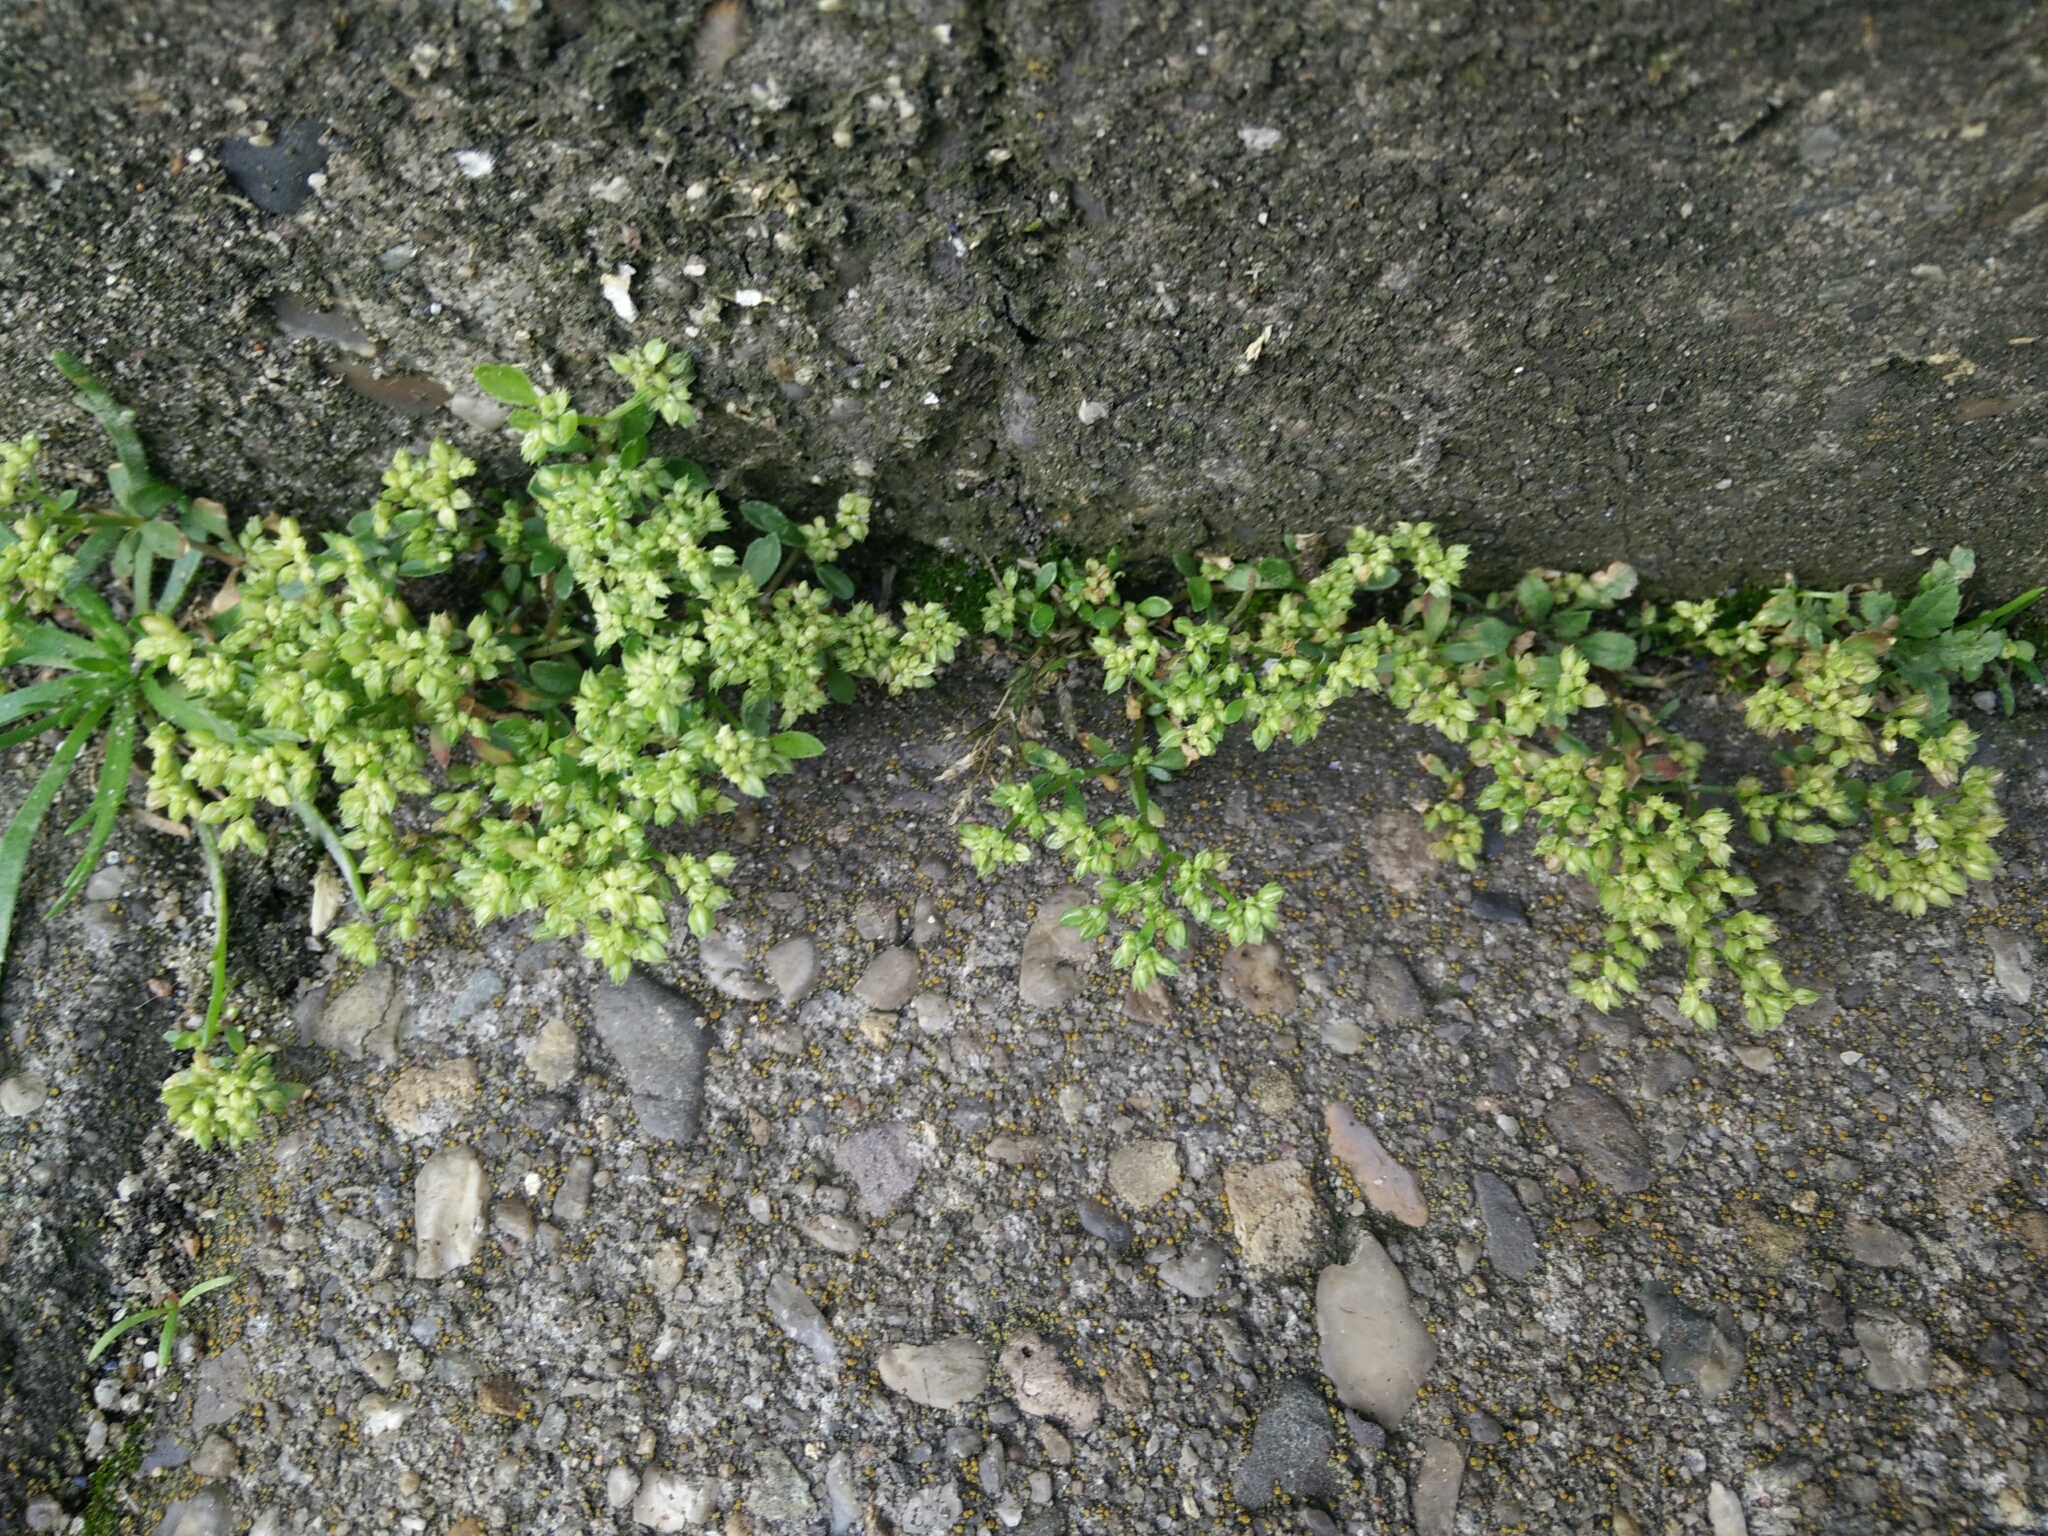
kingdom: Plantae
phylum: Tracheophyta
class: Magnoliopsida
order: Caryophyllales
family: Caryophyllaceae
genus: Polycarpon
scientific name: Polycarpon tetraphyllum
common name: Four-leaved all-seed
